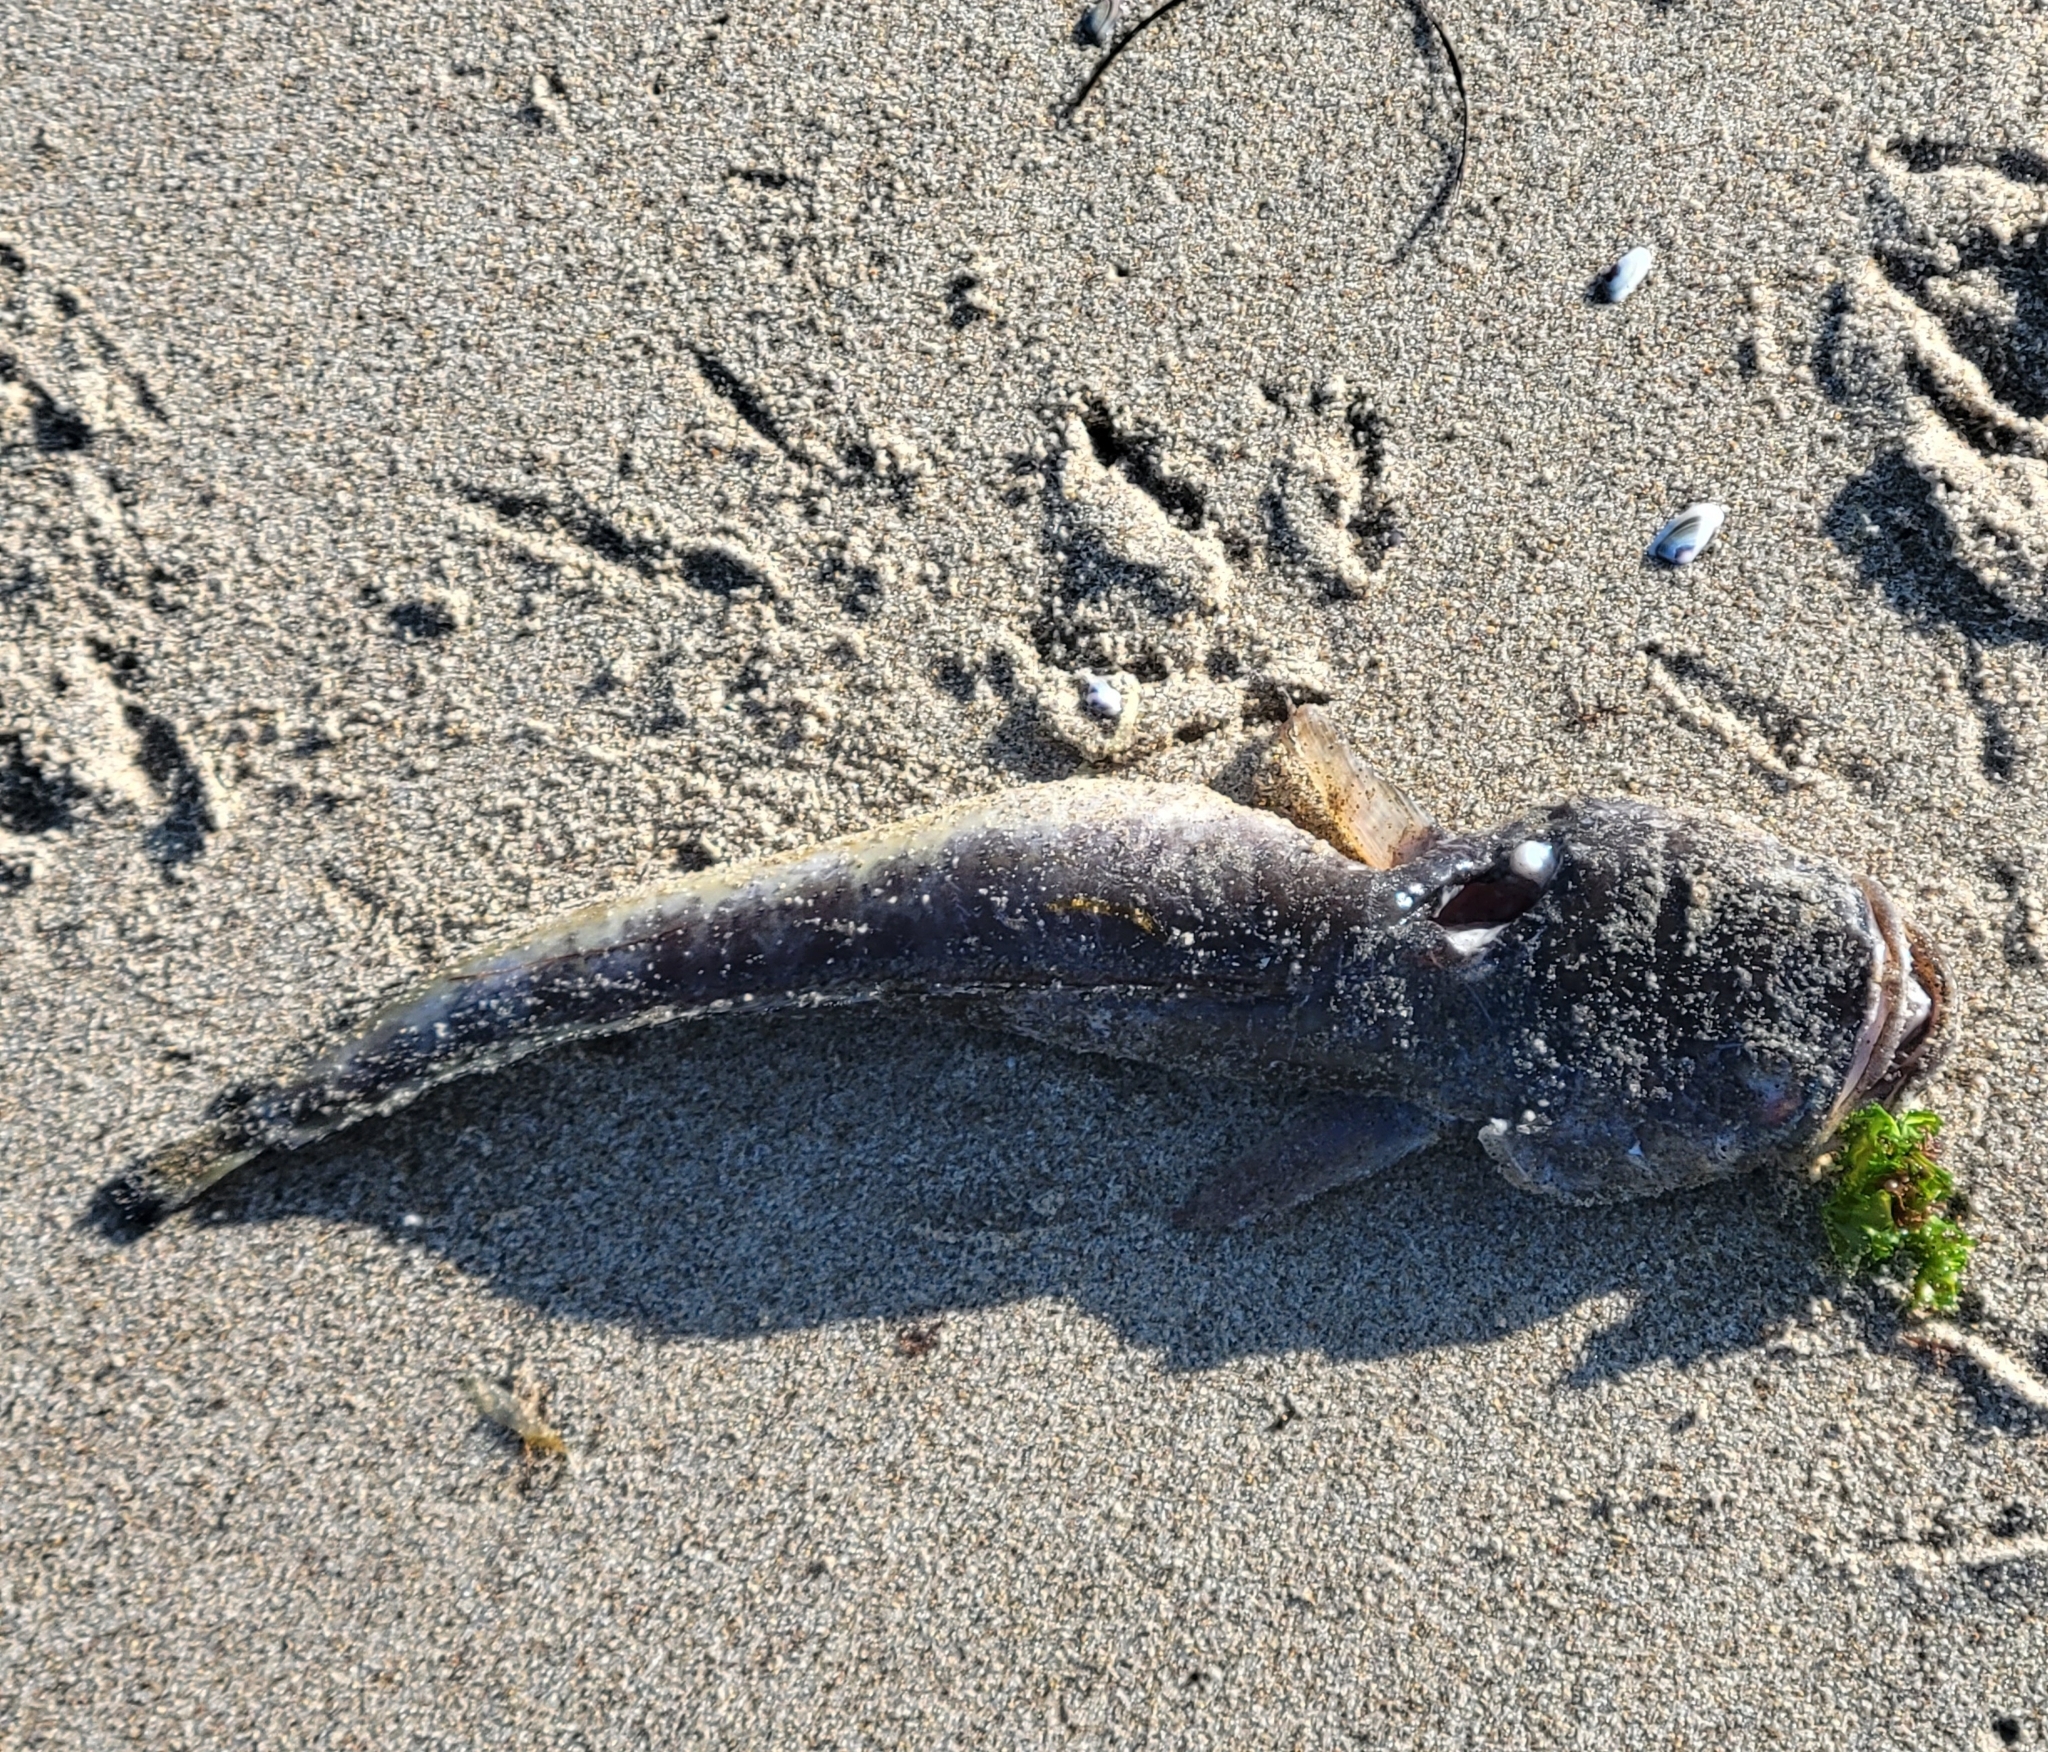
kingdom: Animalia
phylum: Chordata
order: Batrachoidiformes
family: Batrachoididae
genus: Porichthys
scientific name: Porichthys myriaster
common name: Specklefin midshipman
